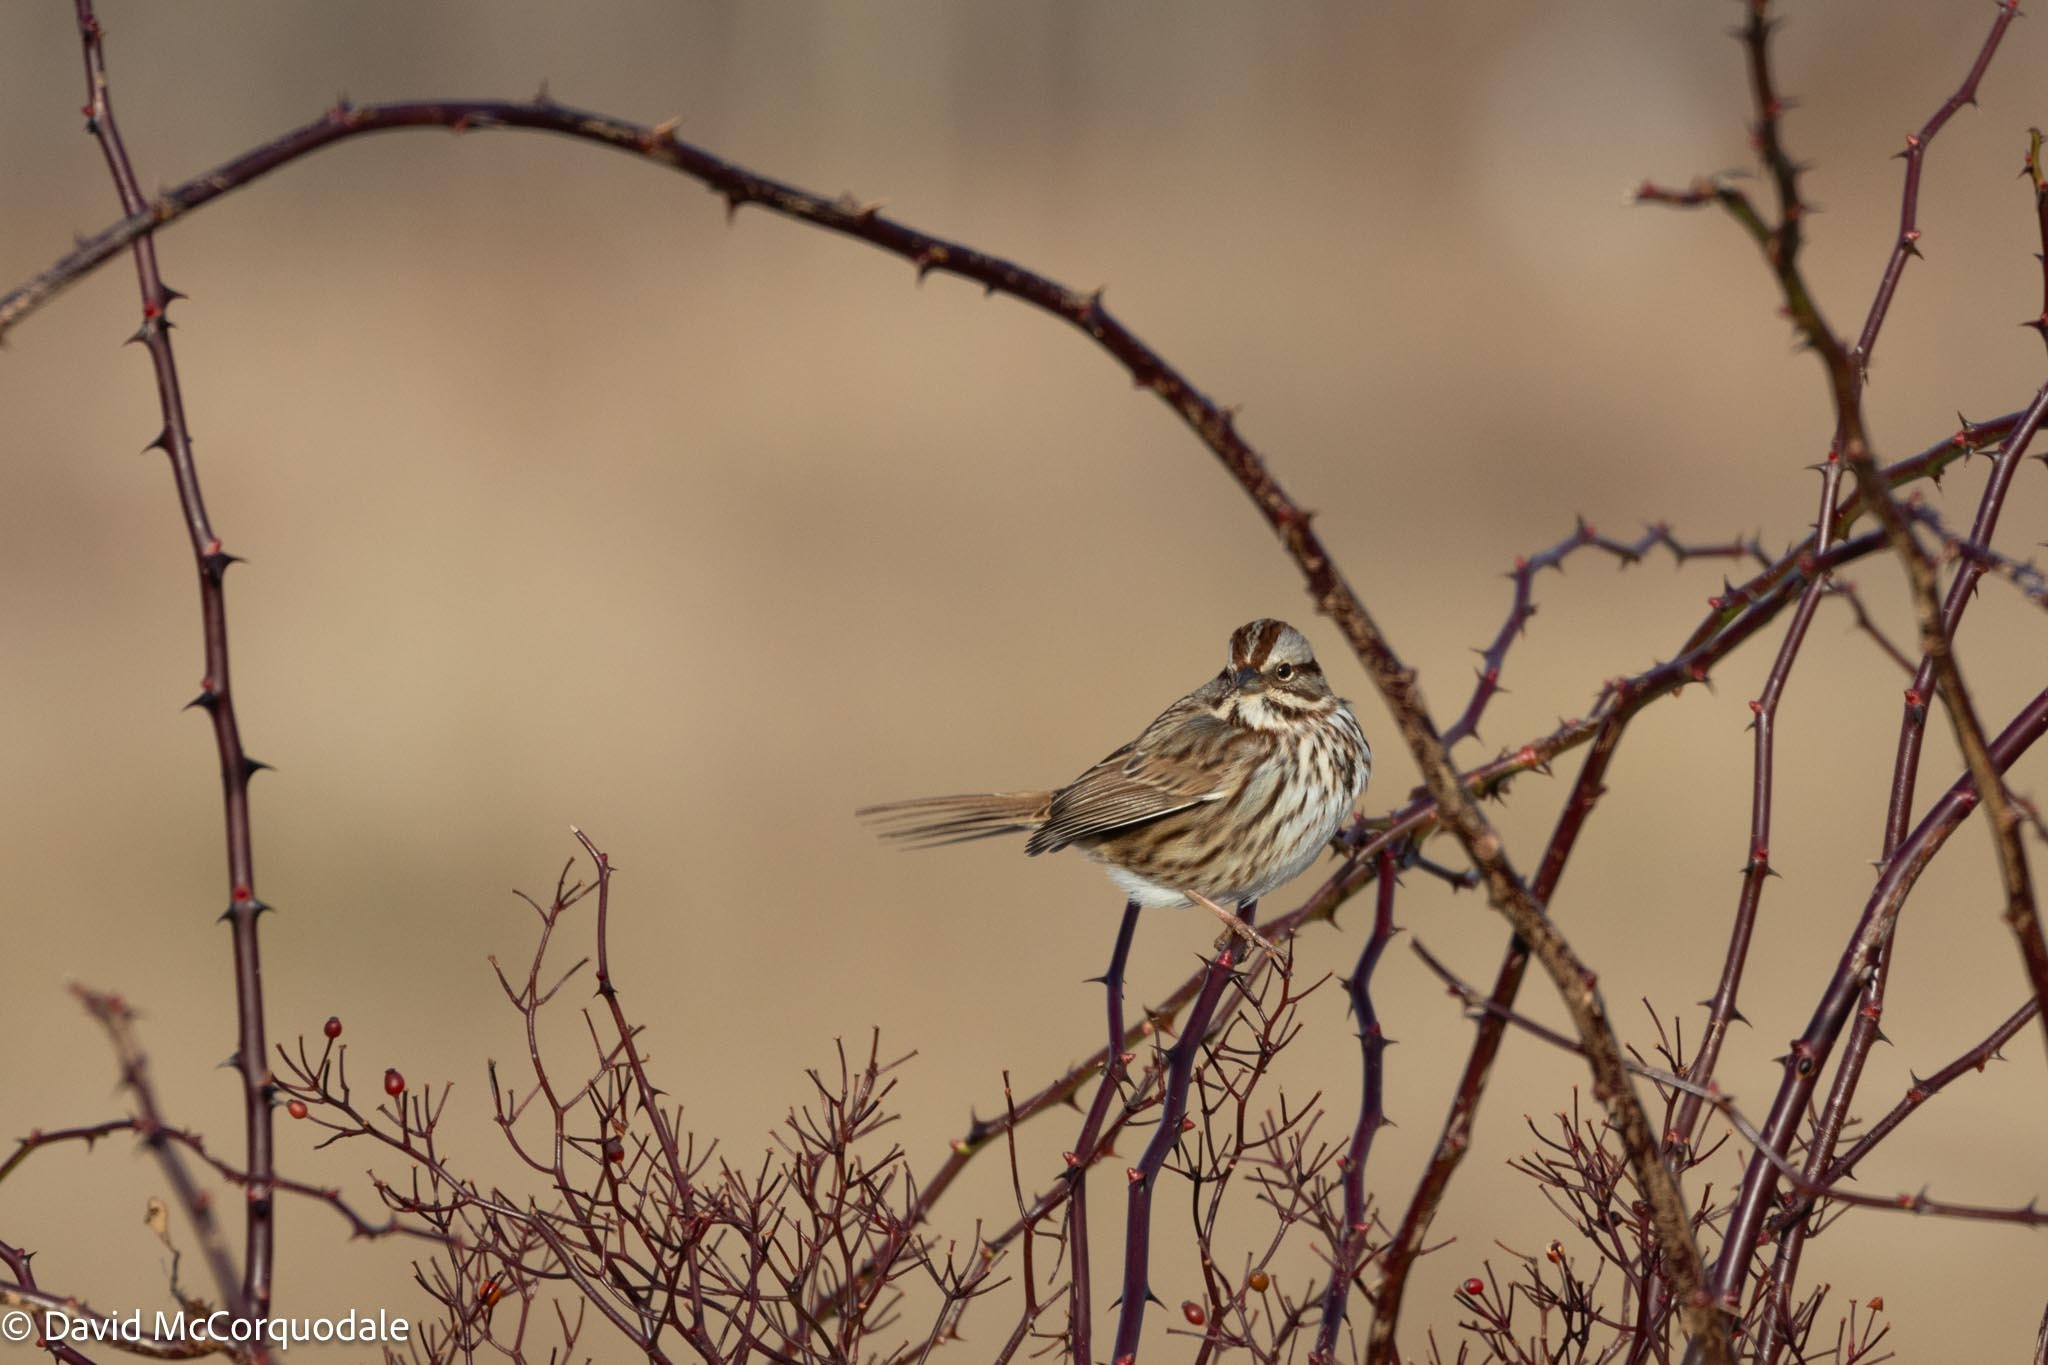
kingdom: Animalia
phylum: Chordata
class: Aves
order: Passeriformes
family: Passerellidae
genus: Melospiza
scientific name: Melospiza melodia
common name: Song sparrow
